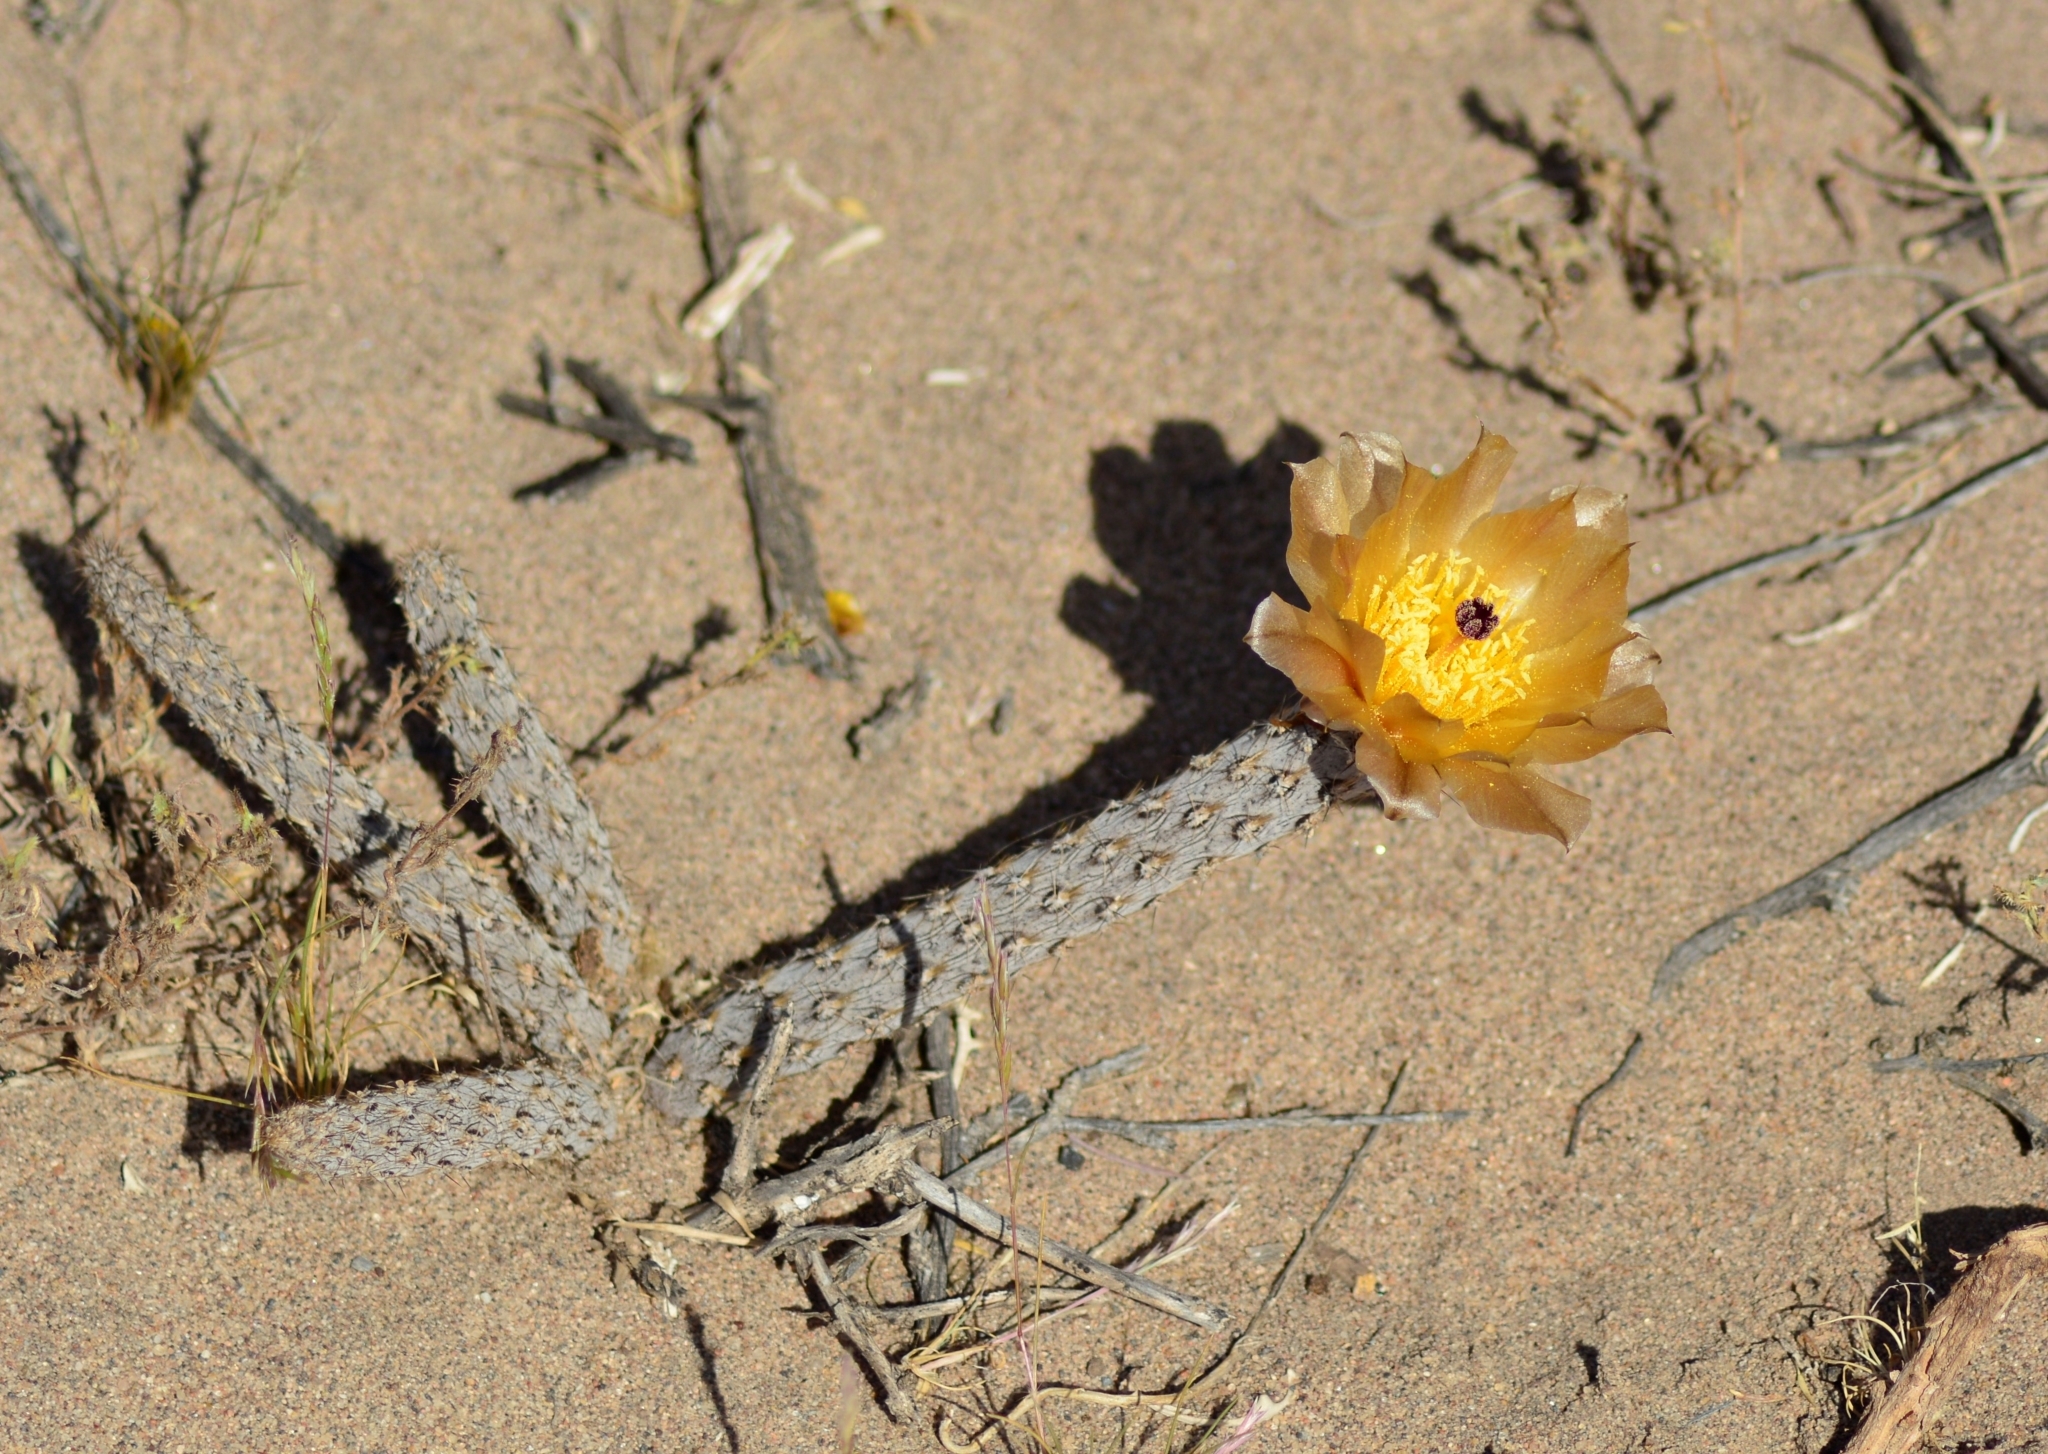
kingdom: Plantae
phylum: Tracheophyta
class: Magnoliopsida
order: Caryophyllales
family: Cactaceae
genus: Pterocactus
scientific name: Pterocactus tuberosus
